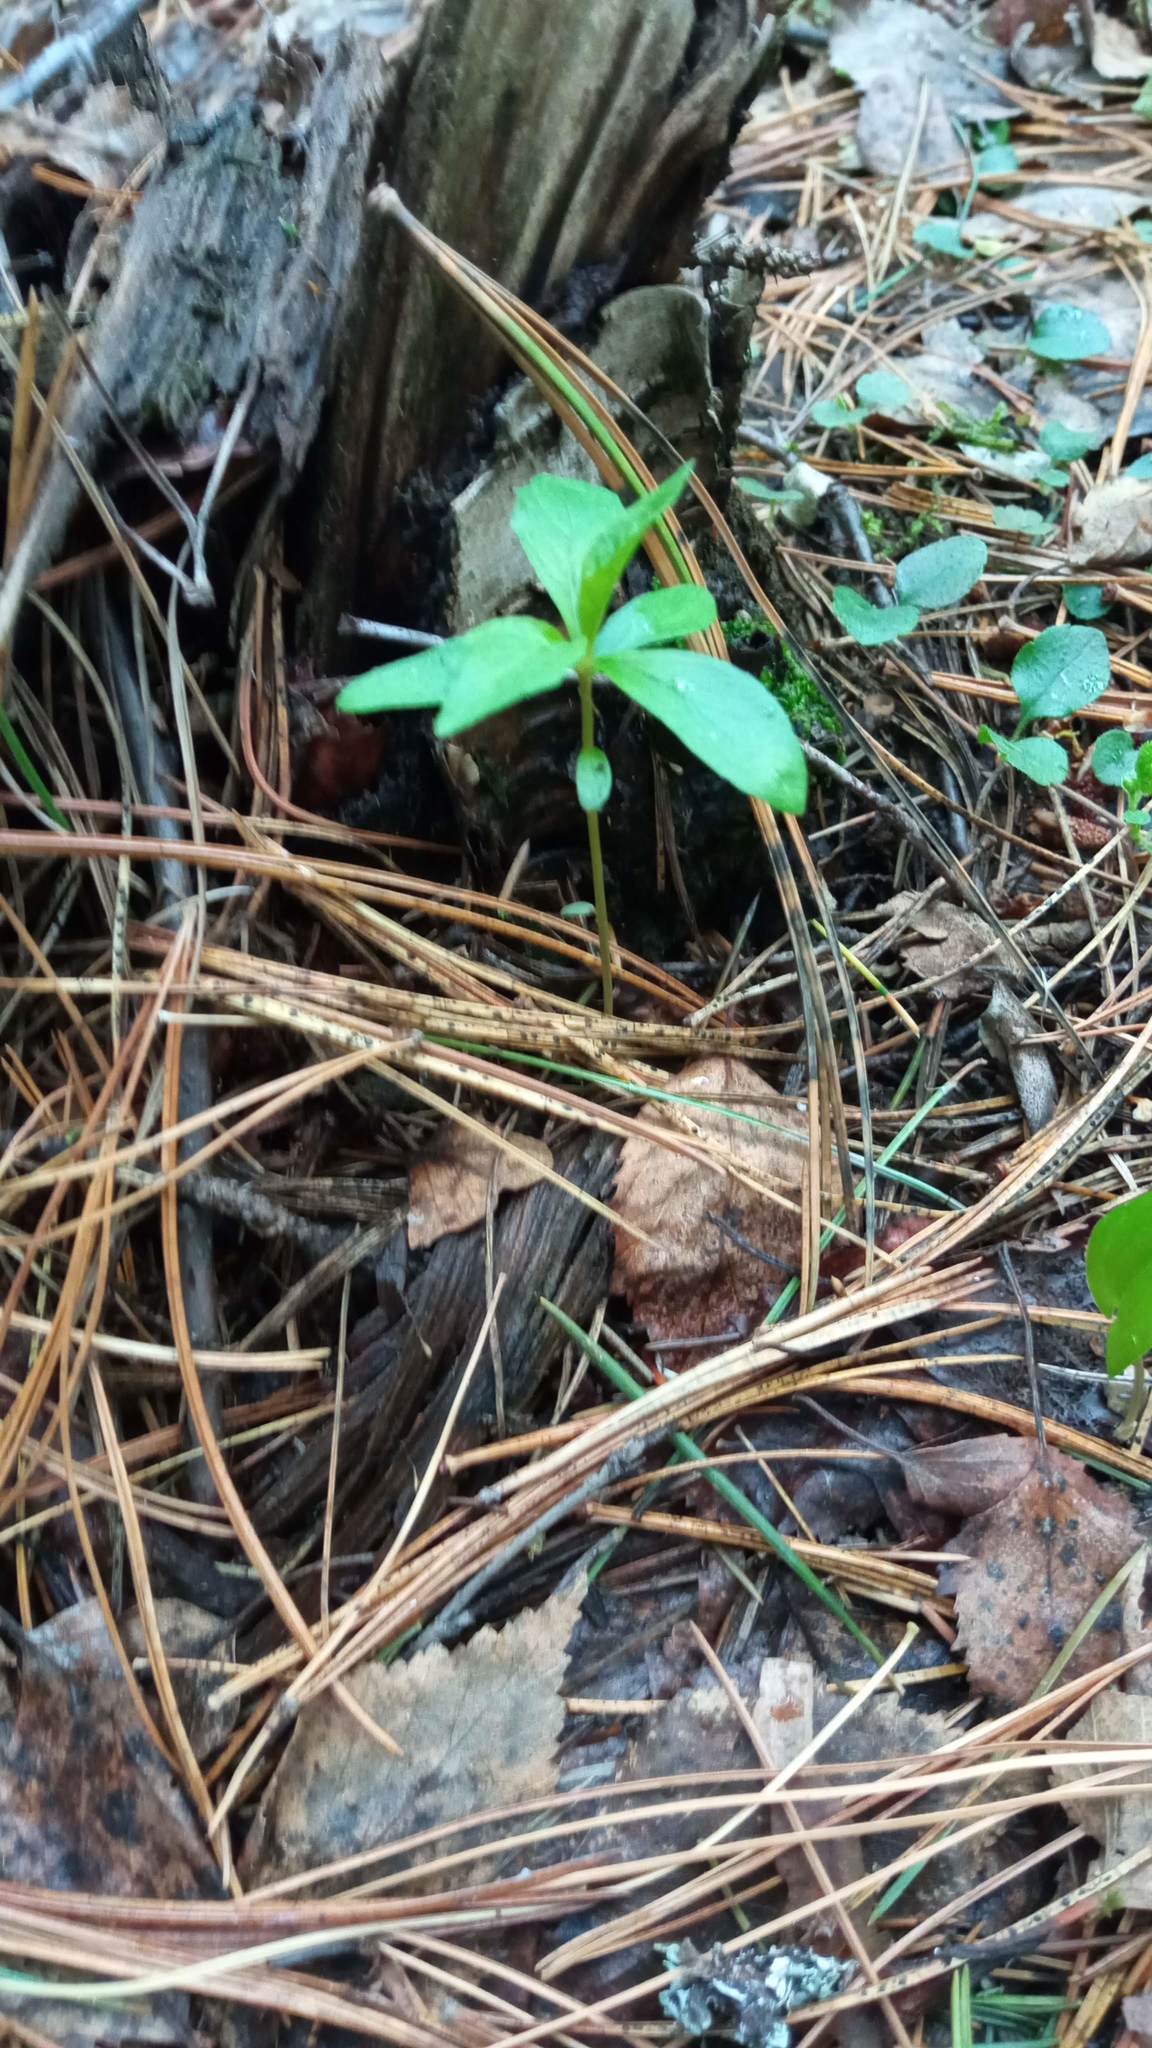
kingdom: Plantae
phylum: Tracheophyta
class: Magnoliopsida
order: Ericales
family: Primulaceae
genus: Lysimachia
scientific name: Lysimachia europaea
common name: Arctic starflower
